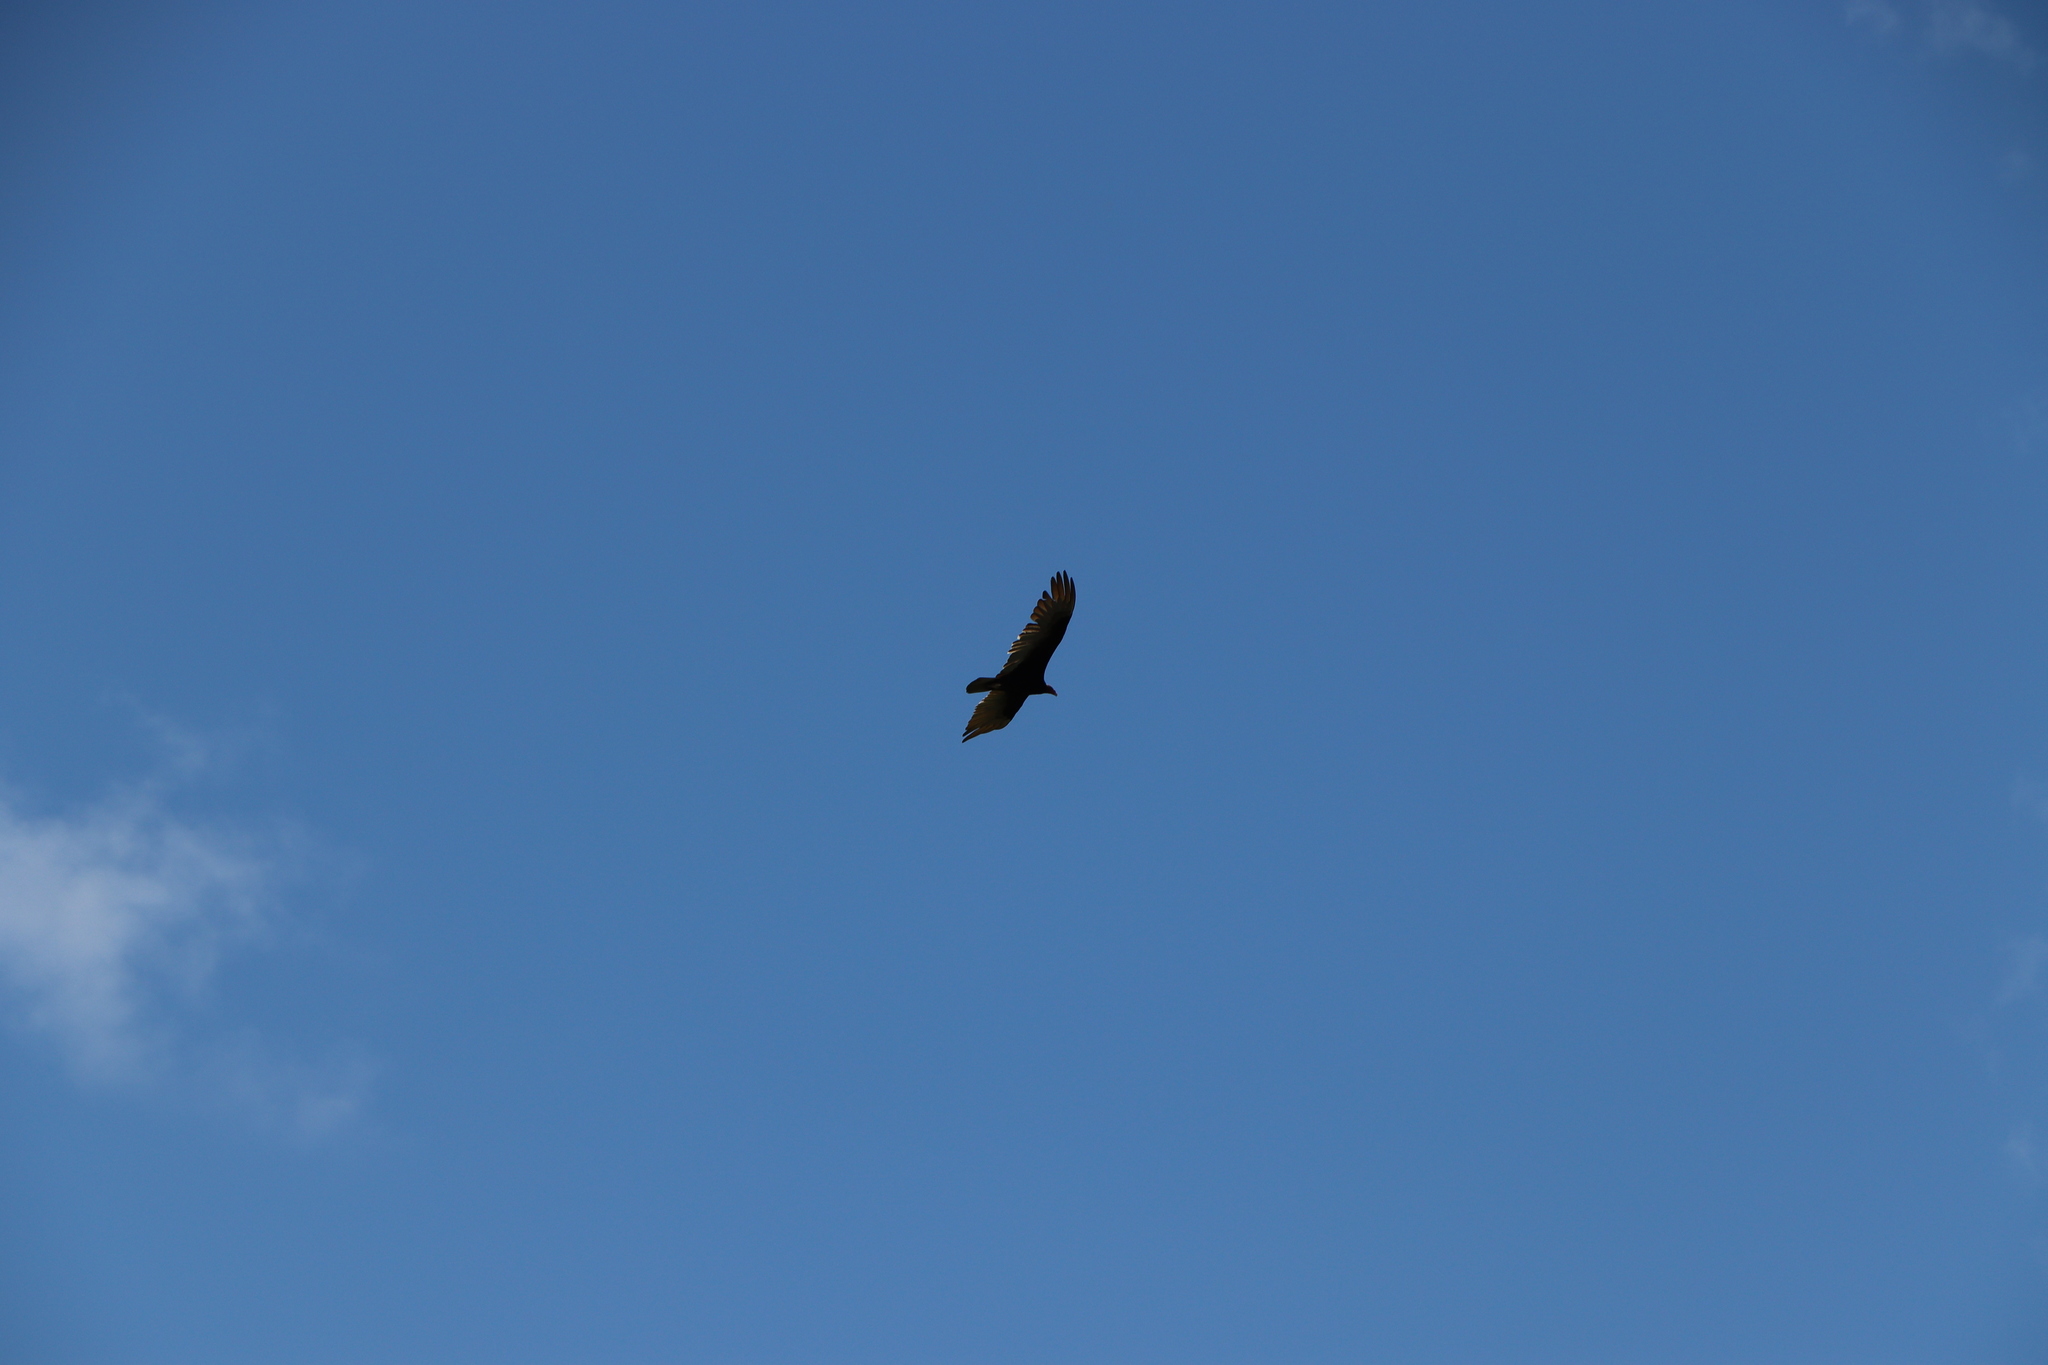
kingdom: Animalia
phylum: Chordata
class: Aves
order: Accipitriformes
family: Cathartidae
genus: Cathartes
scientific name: Cathartes aura
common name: Turkey vulture
